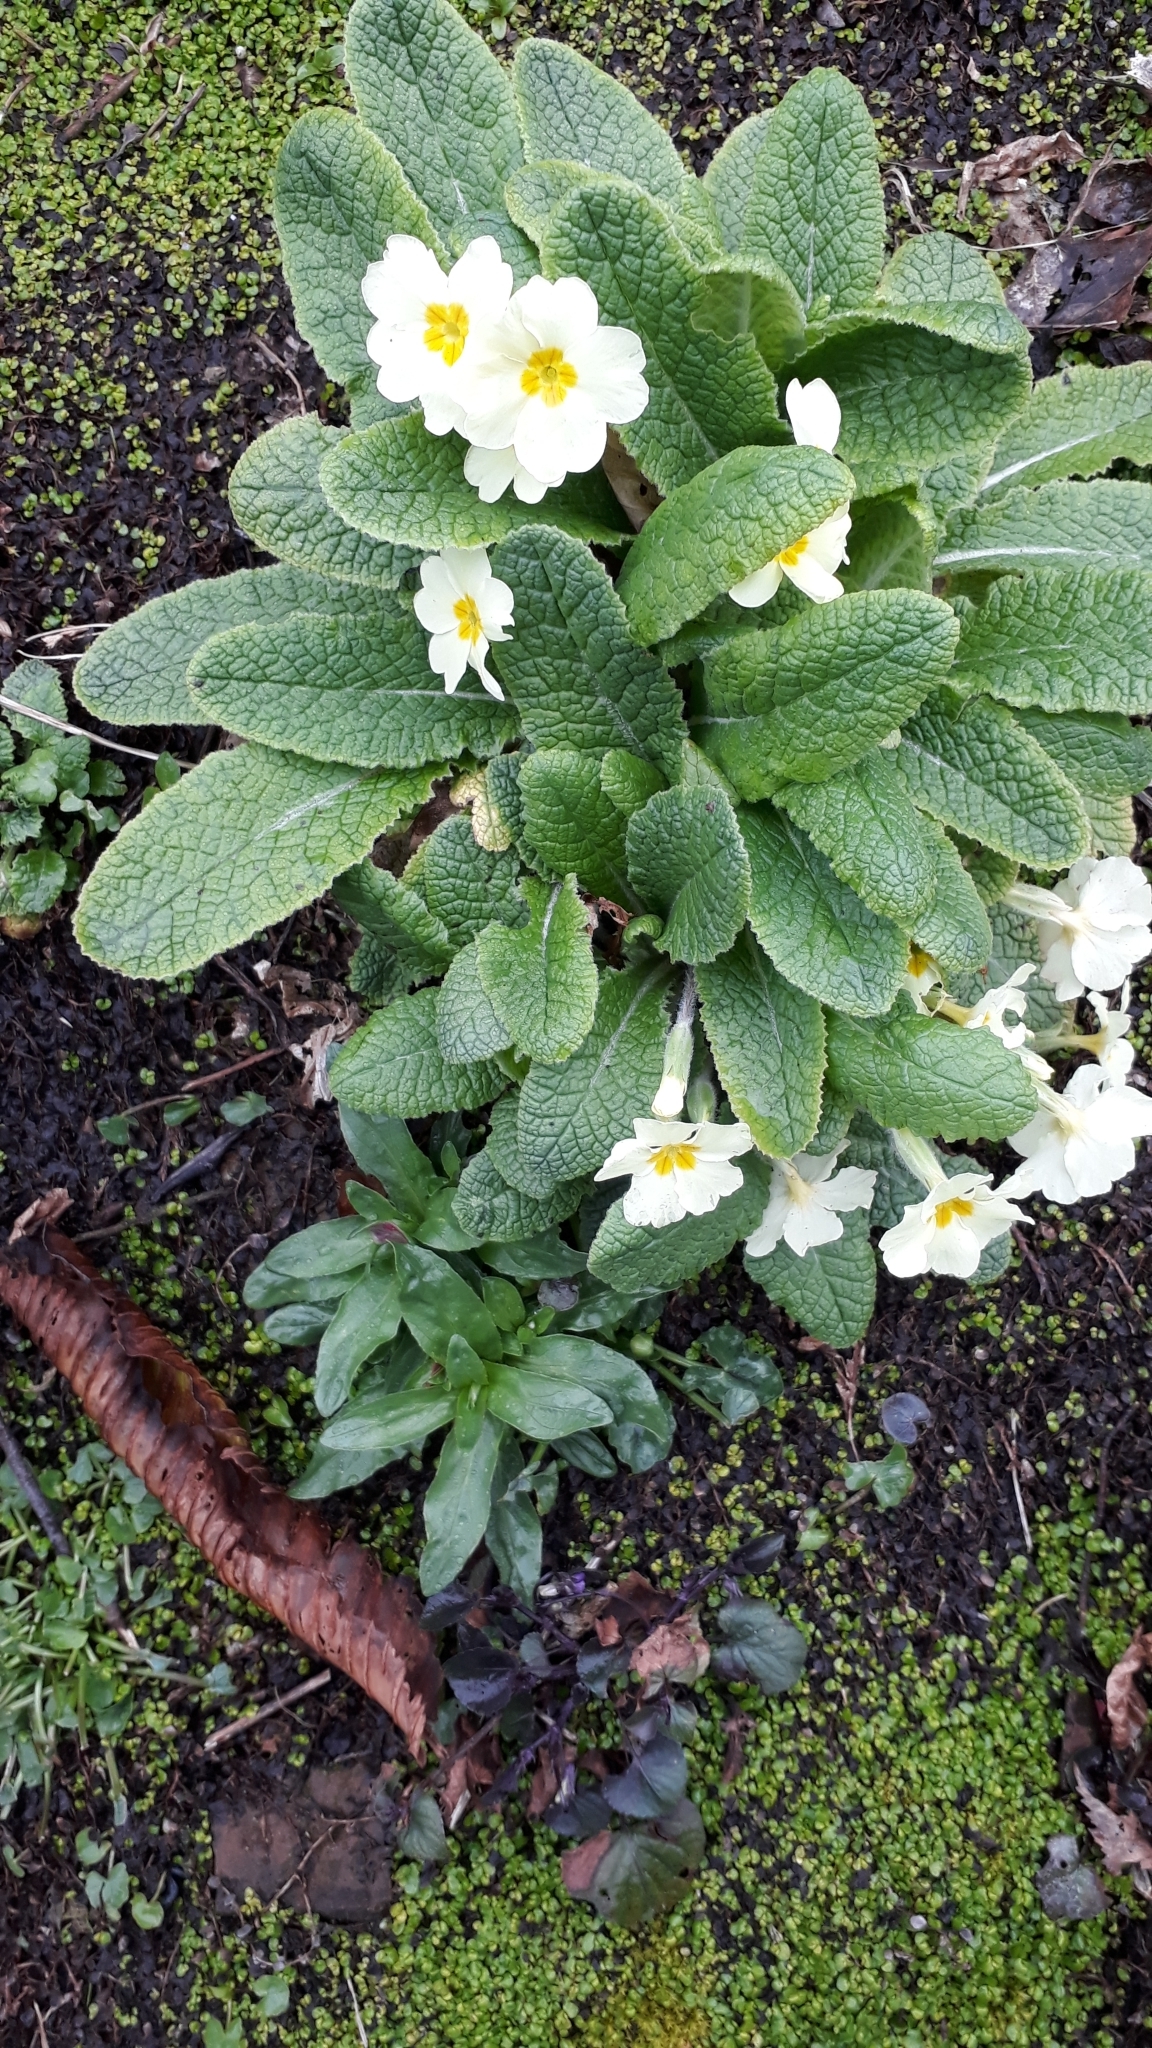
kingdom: Plantae
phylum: Tracheophyta
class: Magnoliopsida
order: Ericales
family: Primulaceae
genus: Primula
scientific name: Primula vulgaris
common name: Primrose
